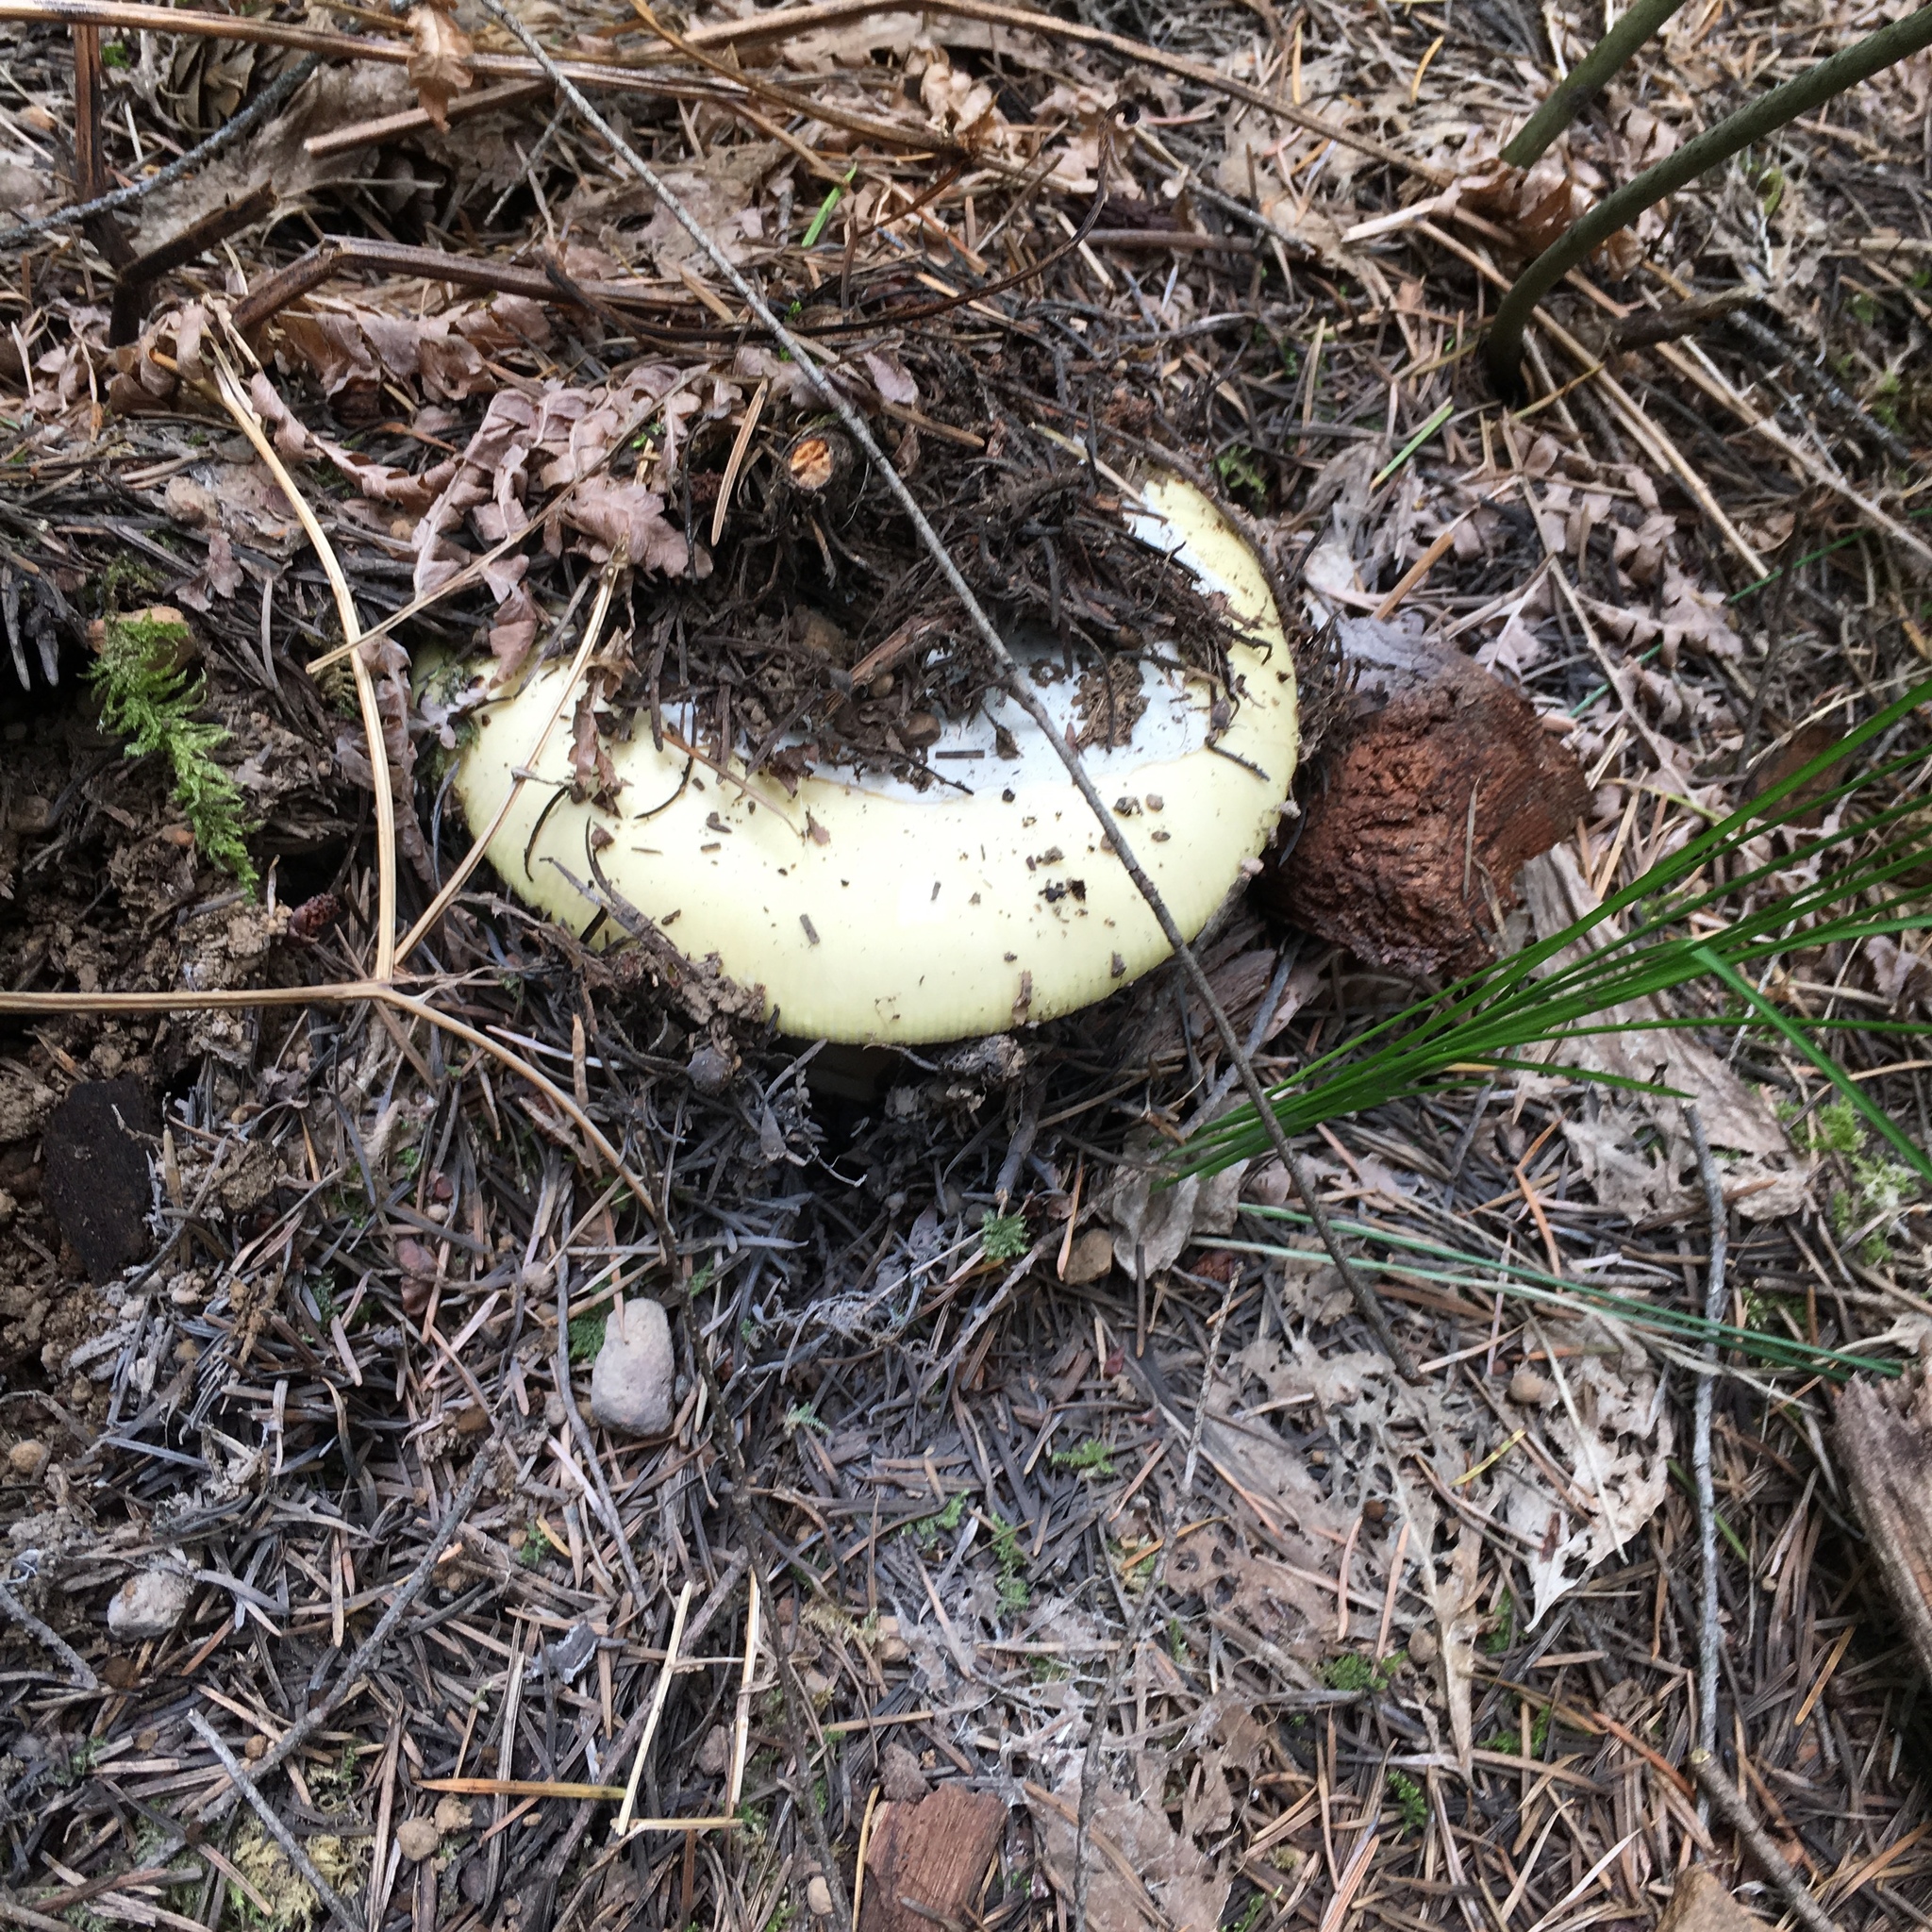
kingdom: Fungi
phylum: Basidiomycota
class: Agaricomycetes
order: Agaricales
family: Amanitaceae
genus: Amanita
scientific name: Amanita vernicoccora
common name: Spring coccora
